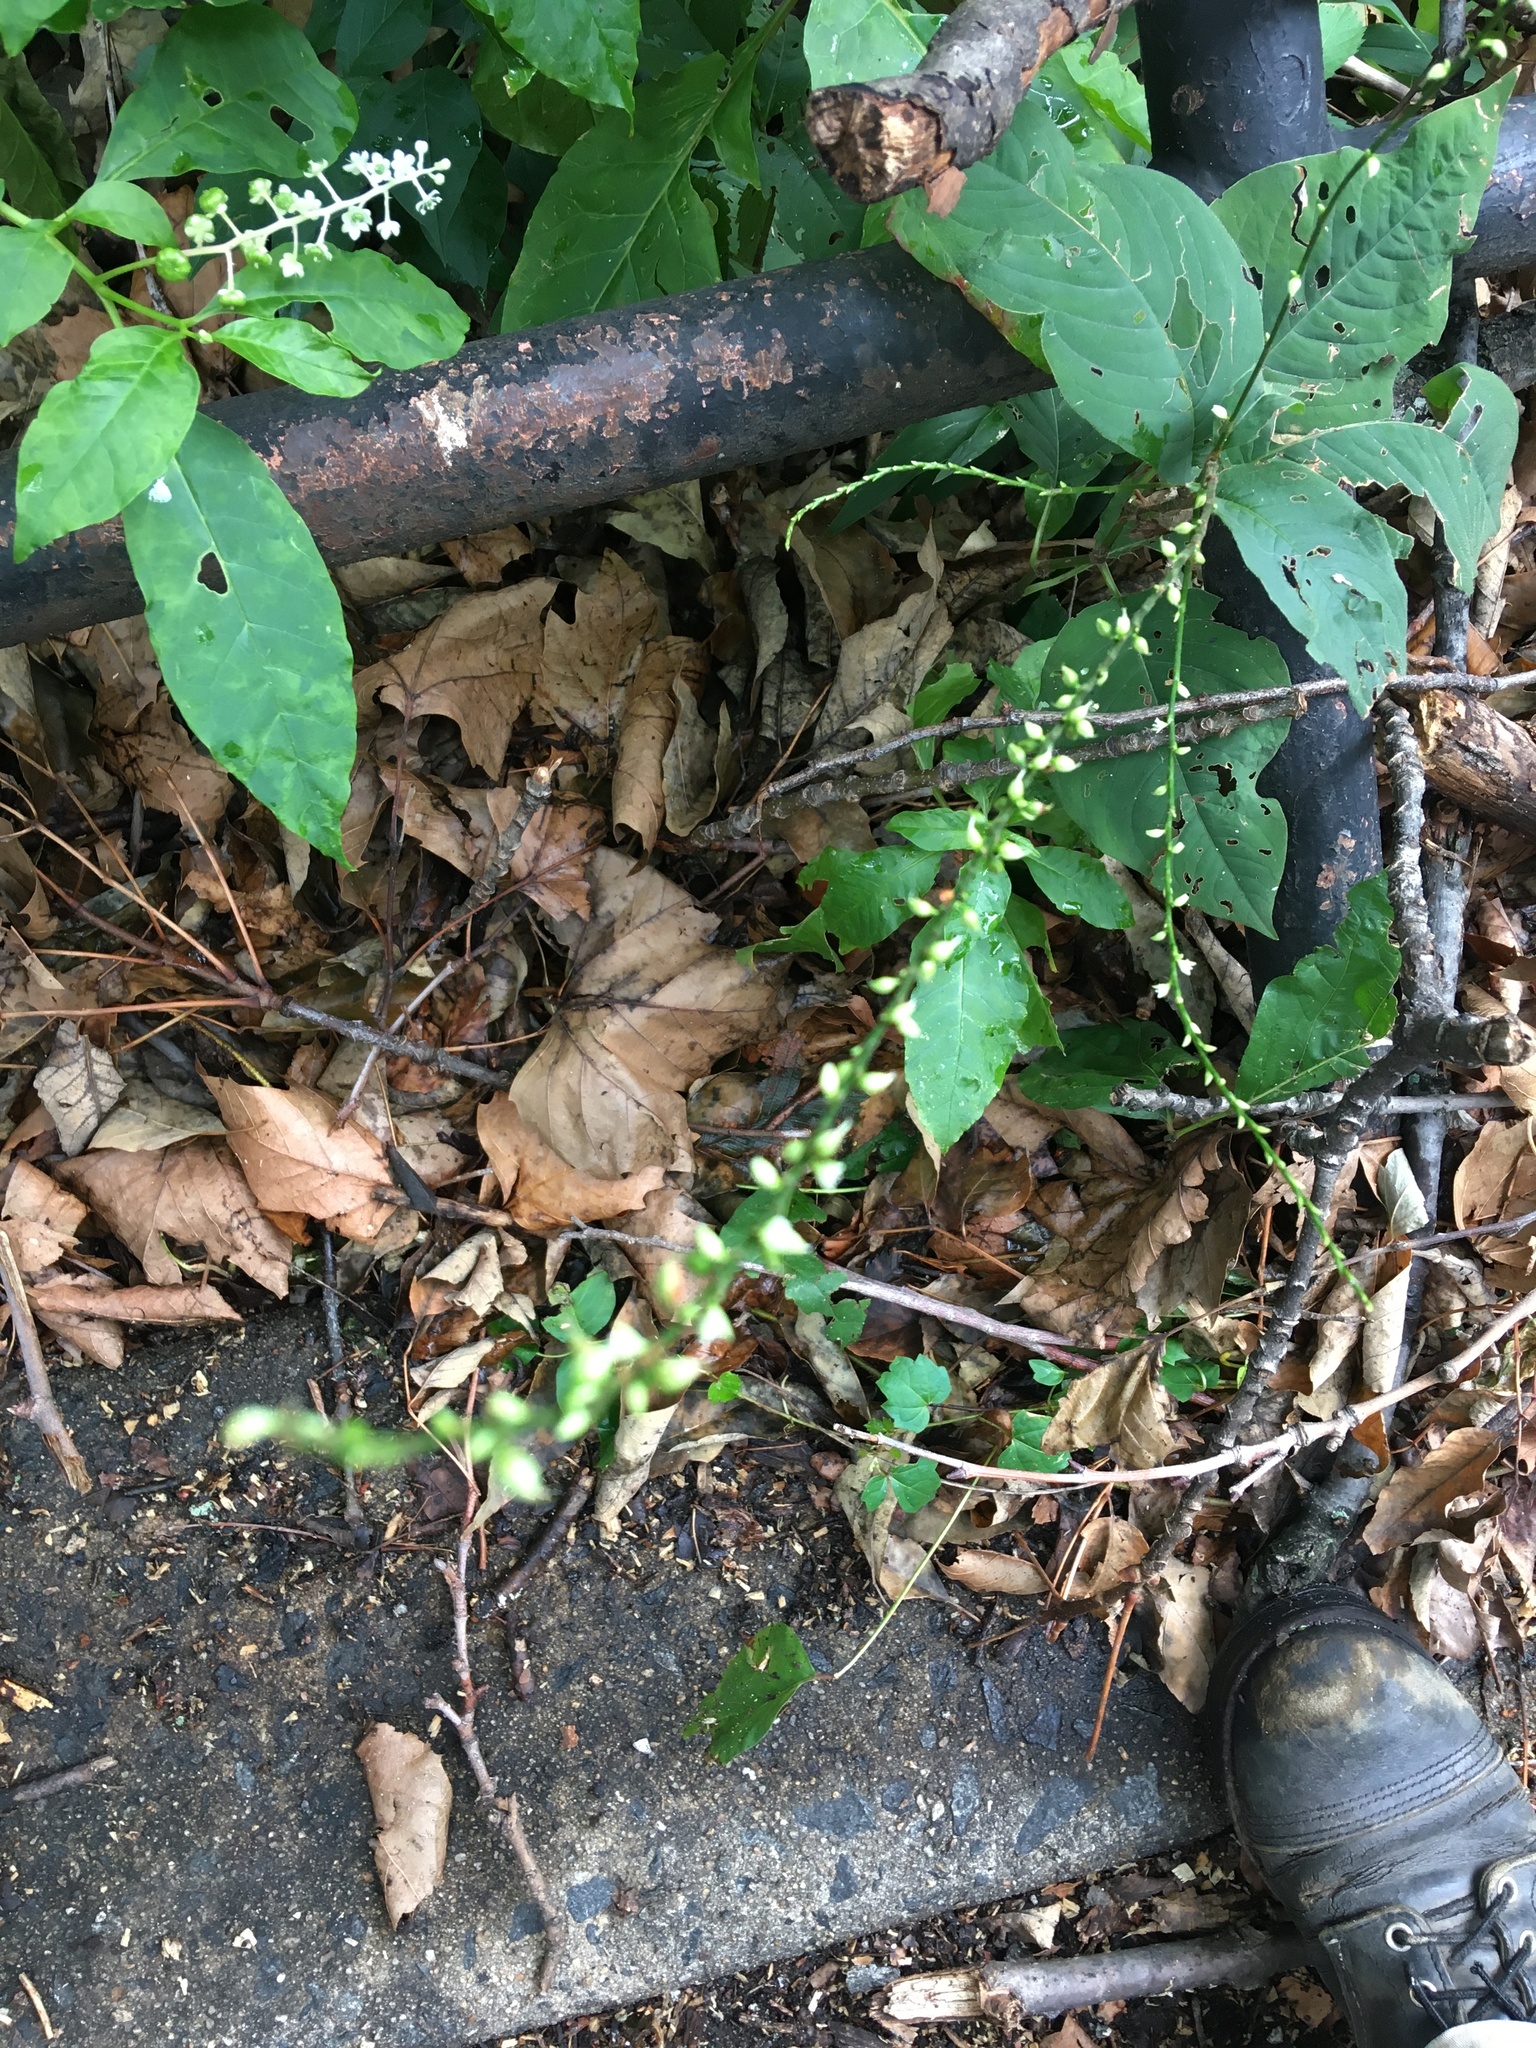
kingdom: Plantae
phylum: Tracheophyta
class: Magnoliopsida
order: Caryophyllales
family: Polygonaceae
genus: Persicaria
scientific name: Persicaria virginiana
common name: Jumpseed
